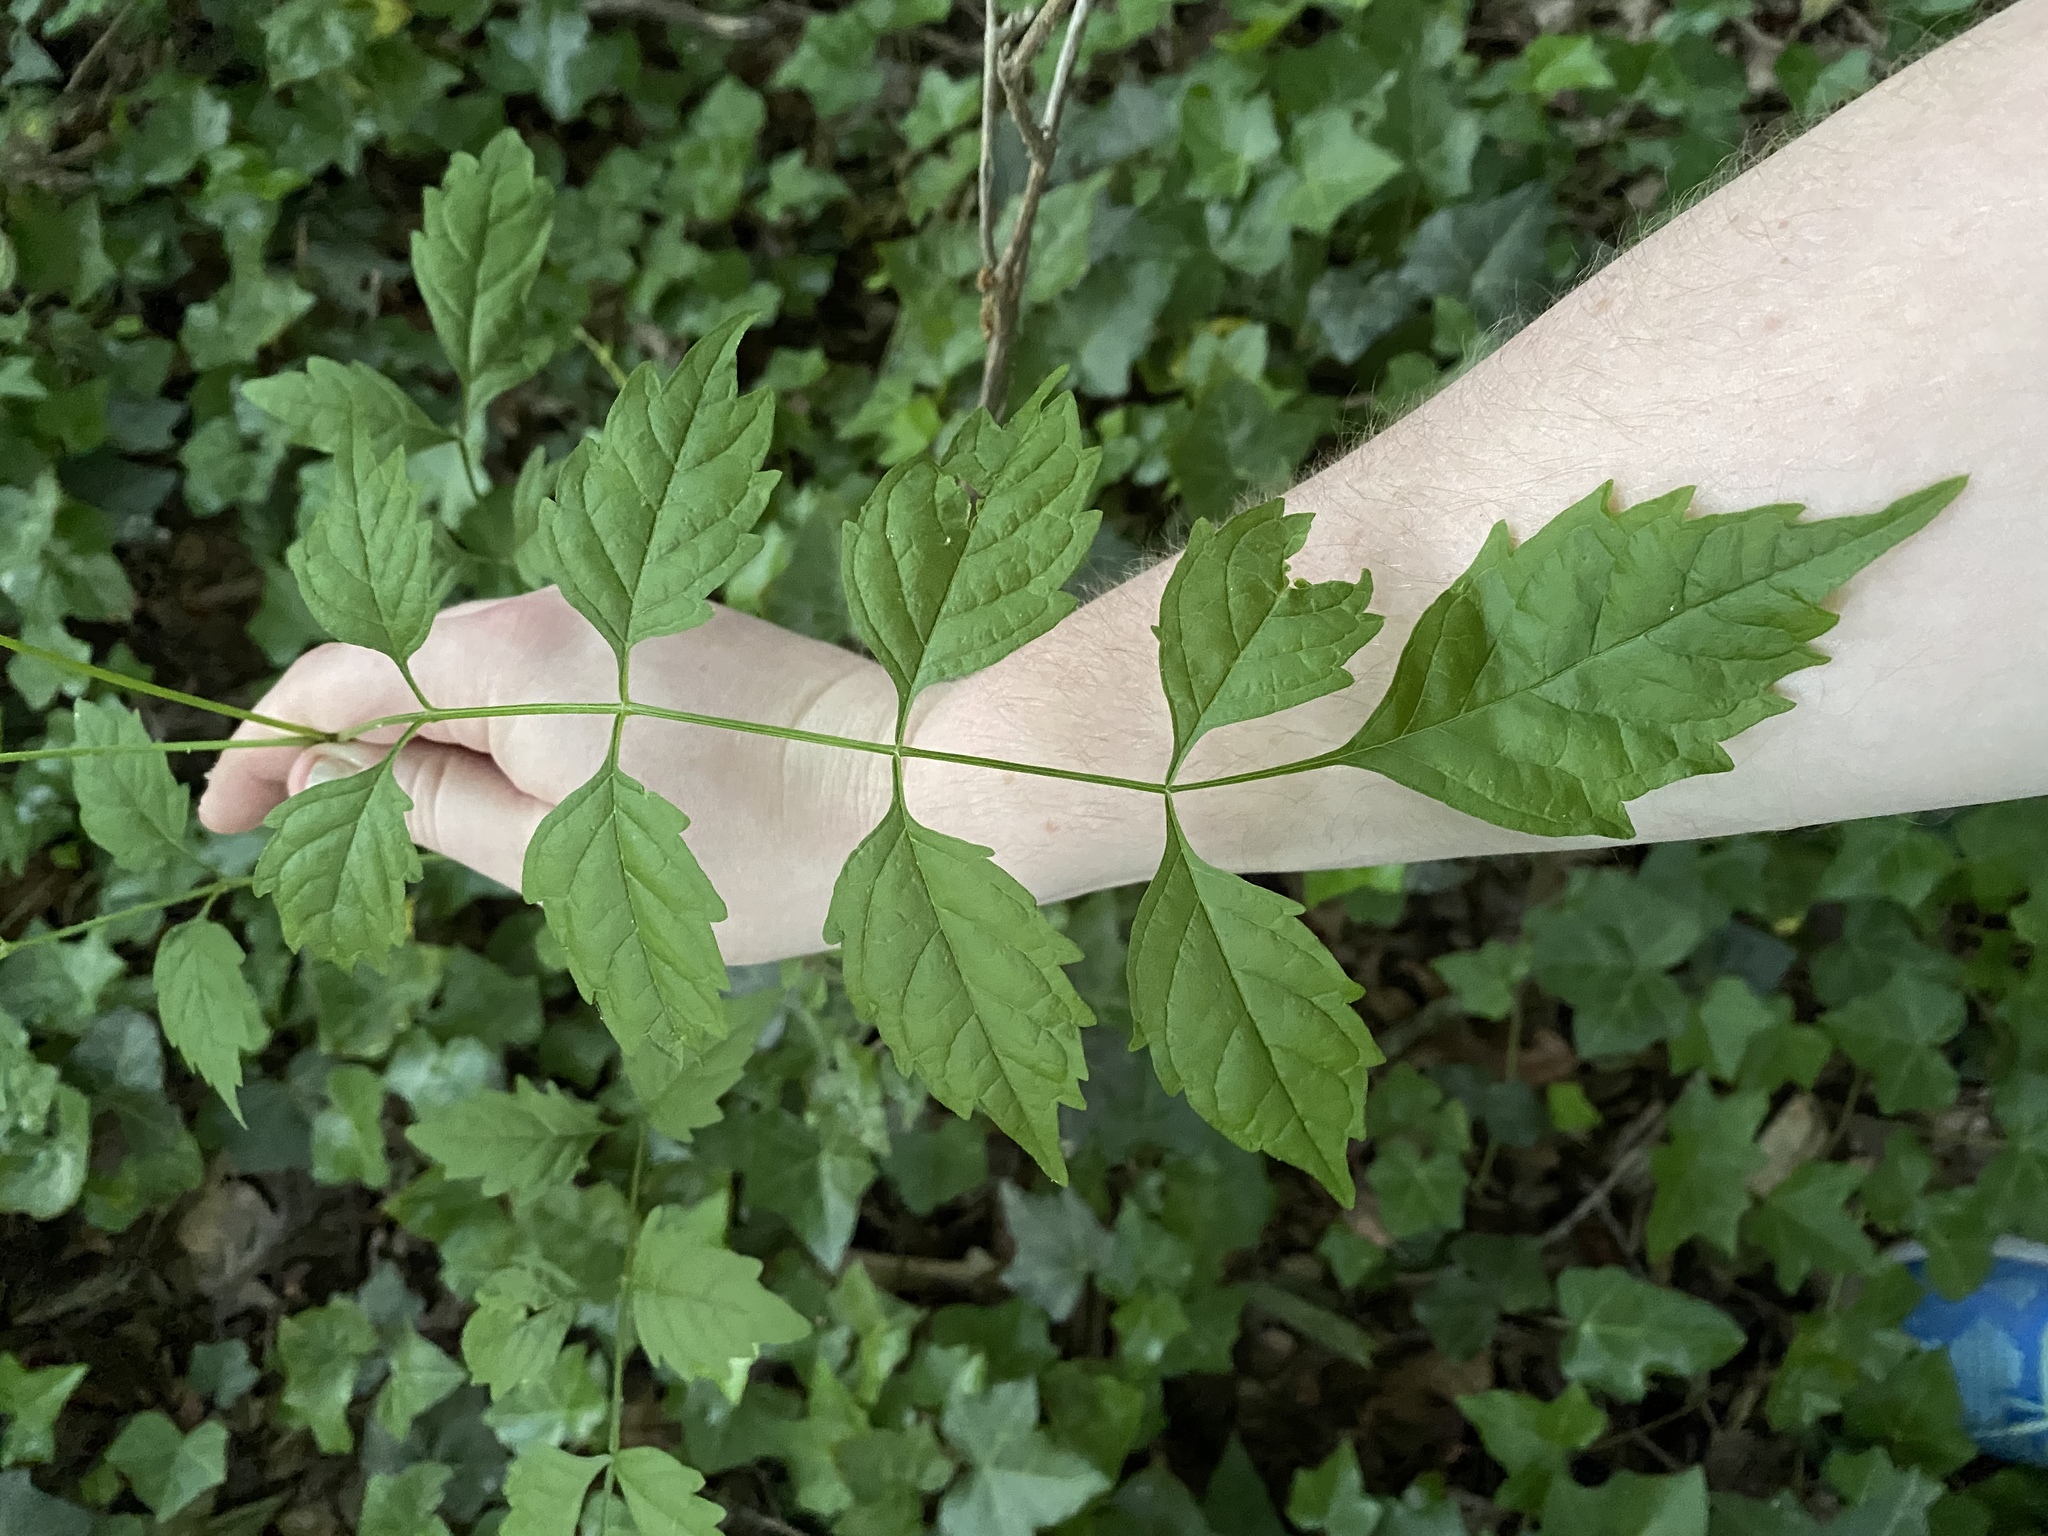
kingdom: Plantae
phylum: Tracheophyta
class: Magnoliopsida
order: Lamiales
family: Bignoniaceae
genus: Campsis
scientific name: Campsis radicans
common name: Trumpet-creeper
